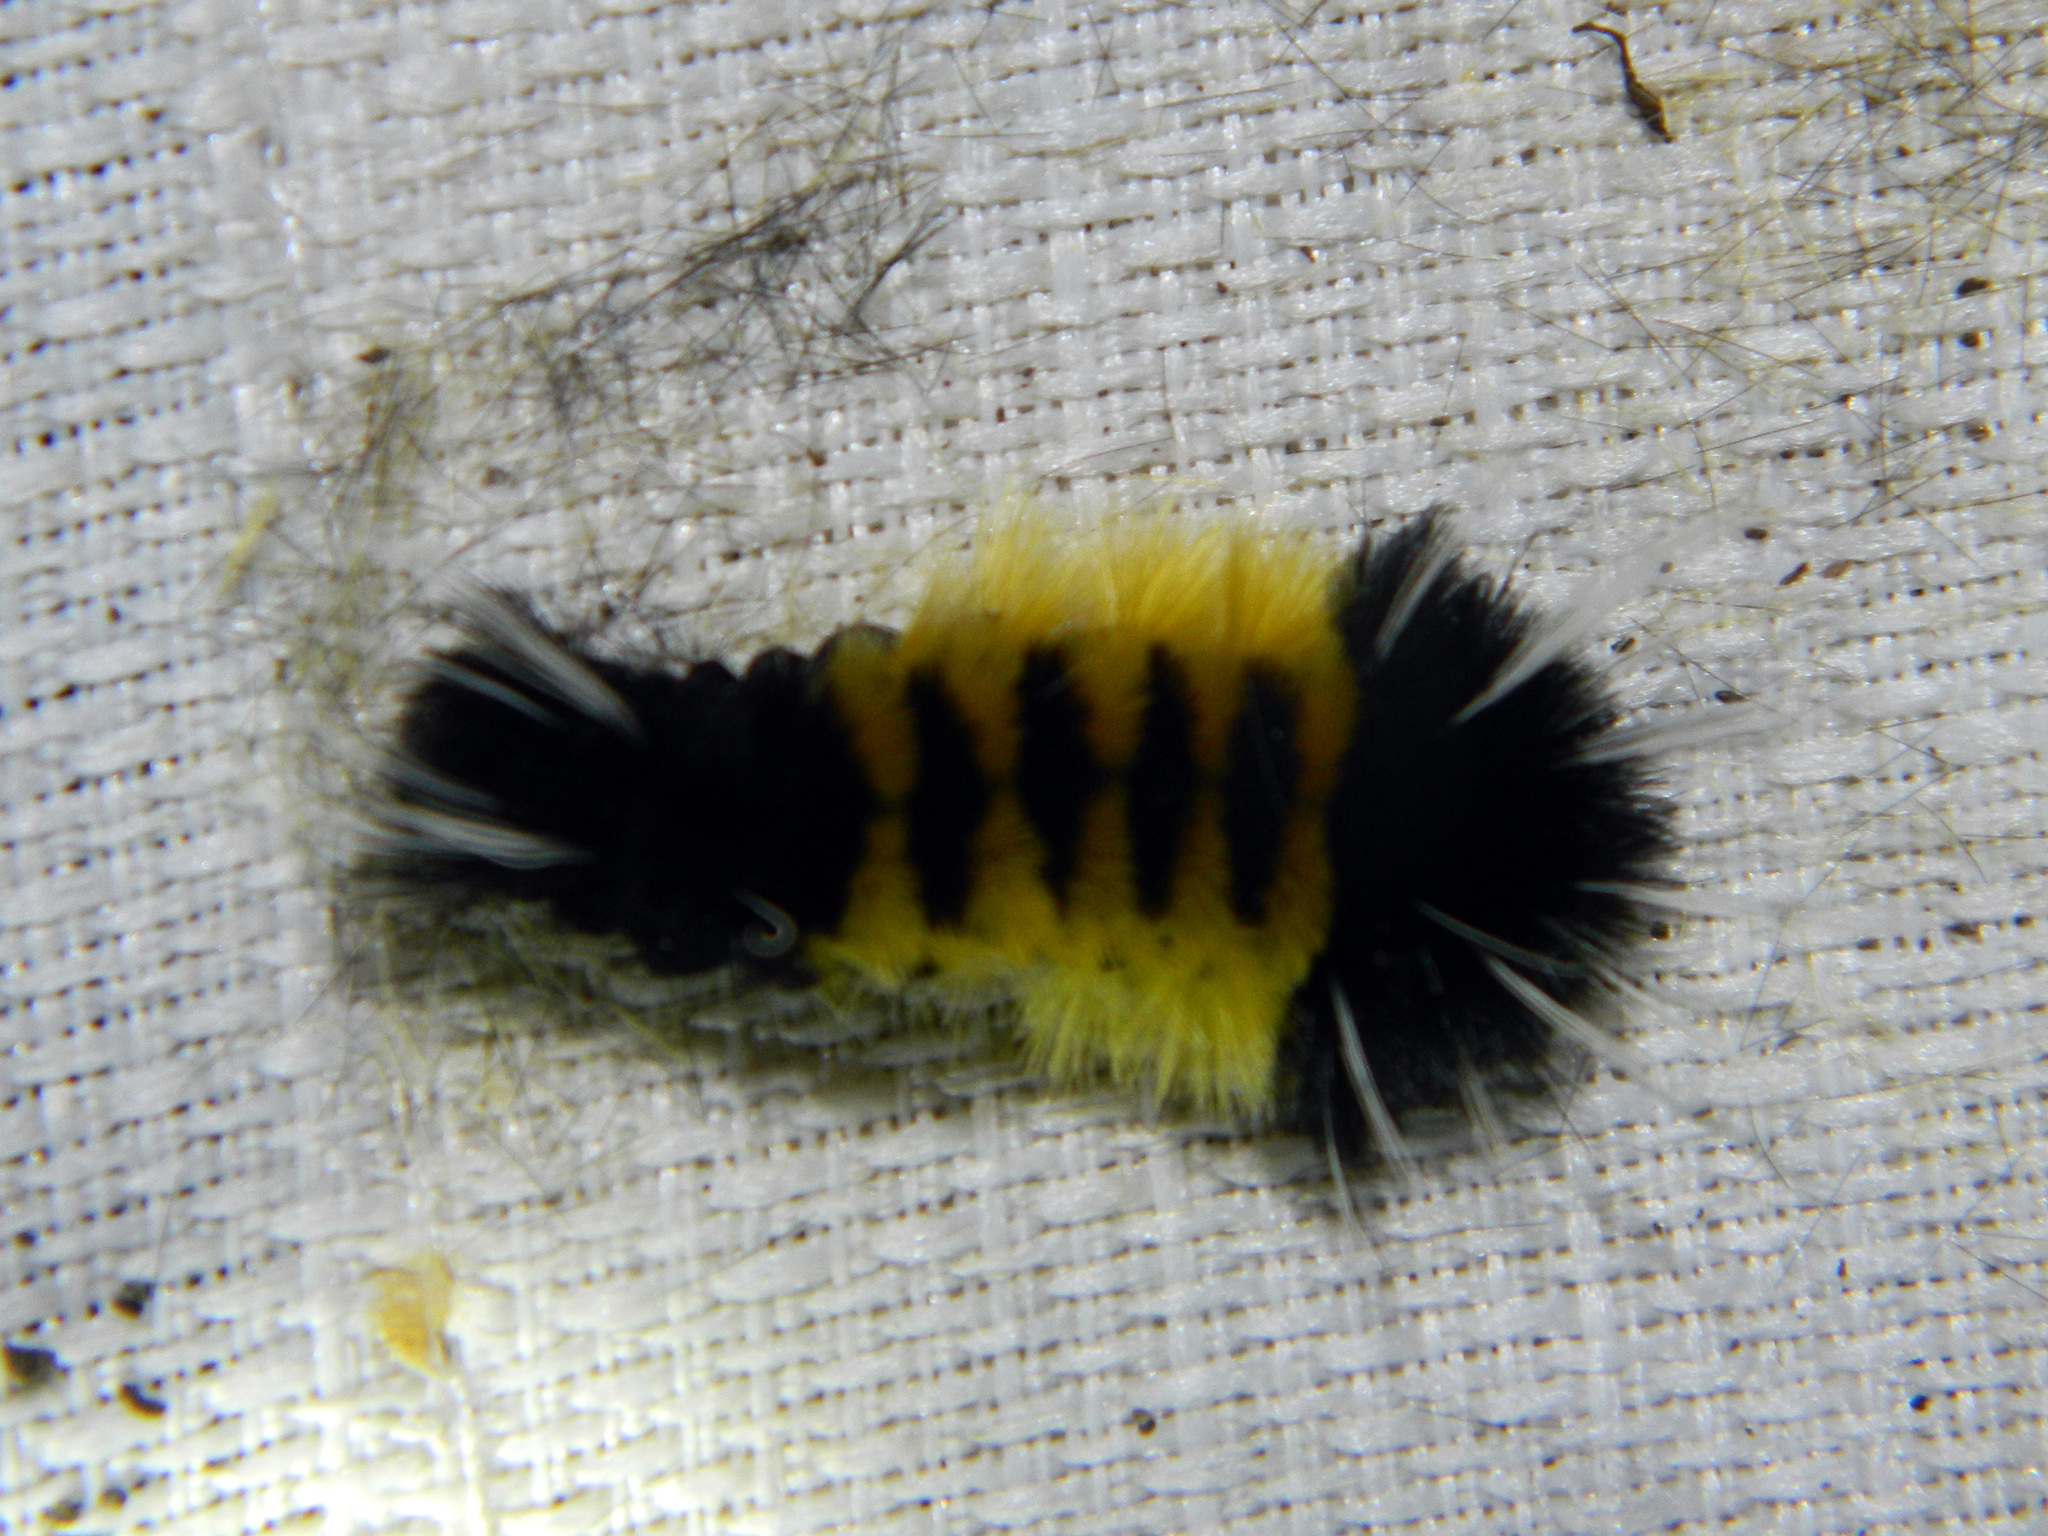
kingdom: Animalia
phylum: Arthropoda
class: Insecta
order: Lepidoptera
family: Erebidae
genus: Lophocampa
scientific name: Lophocampa maculata
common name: Spotted tussock moth
